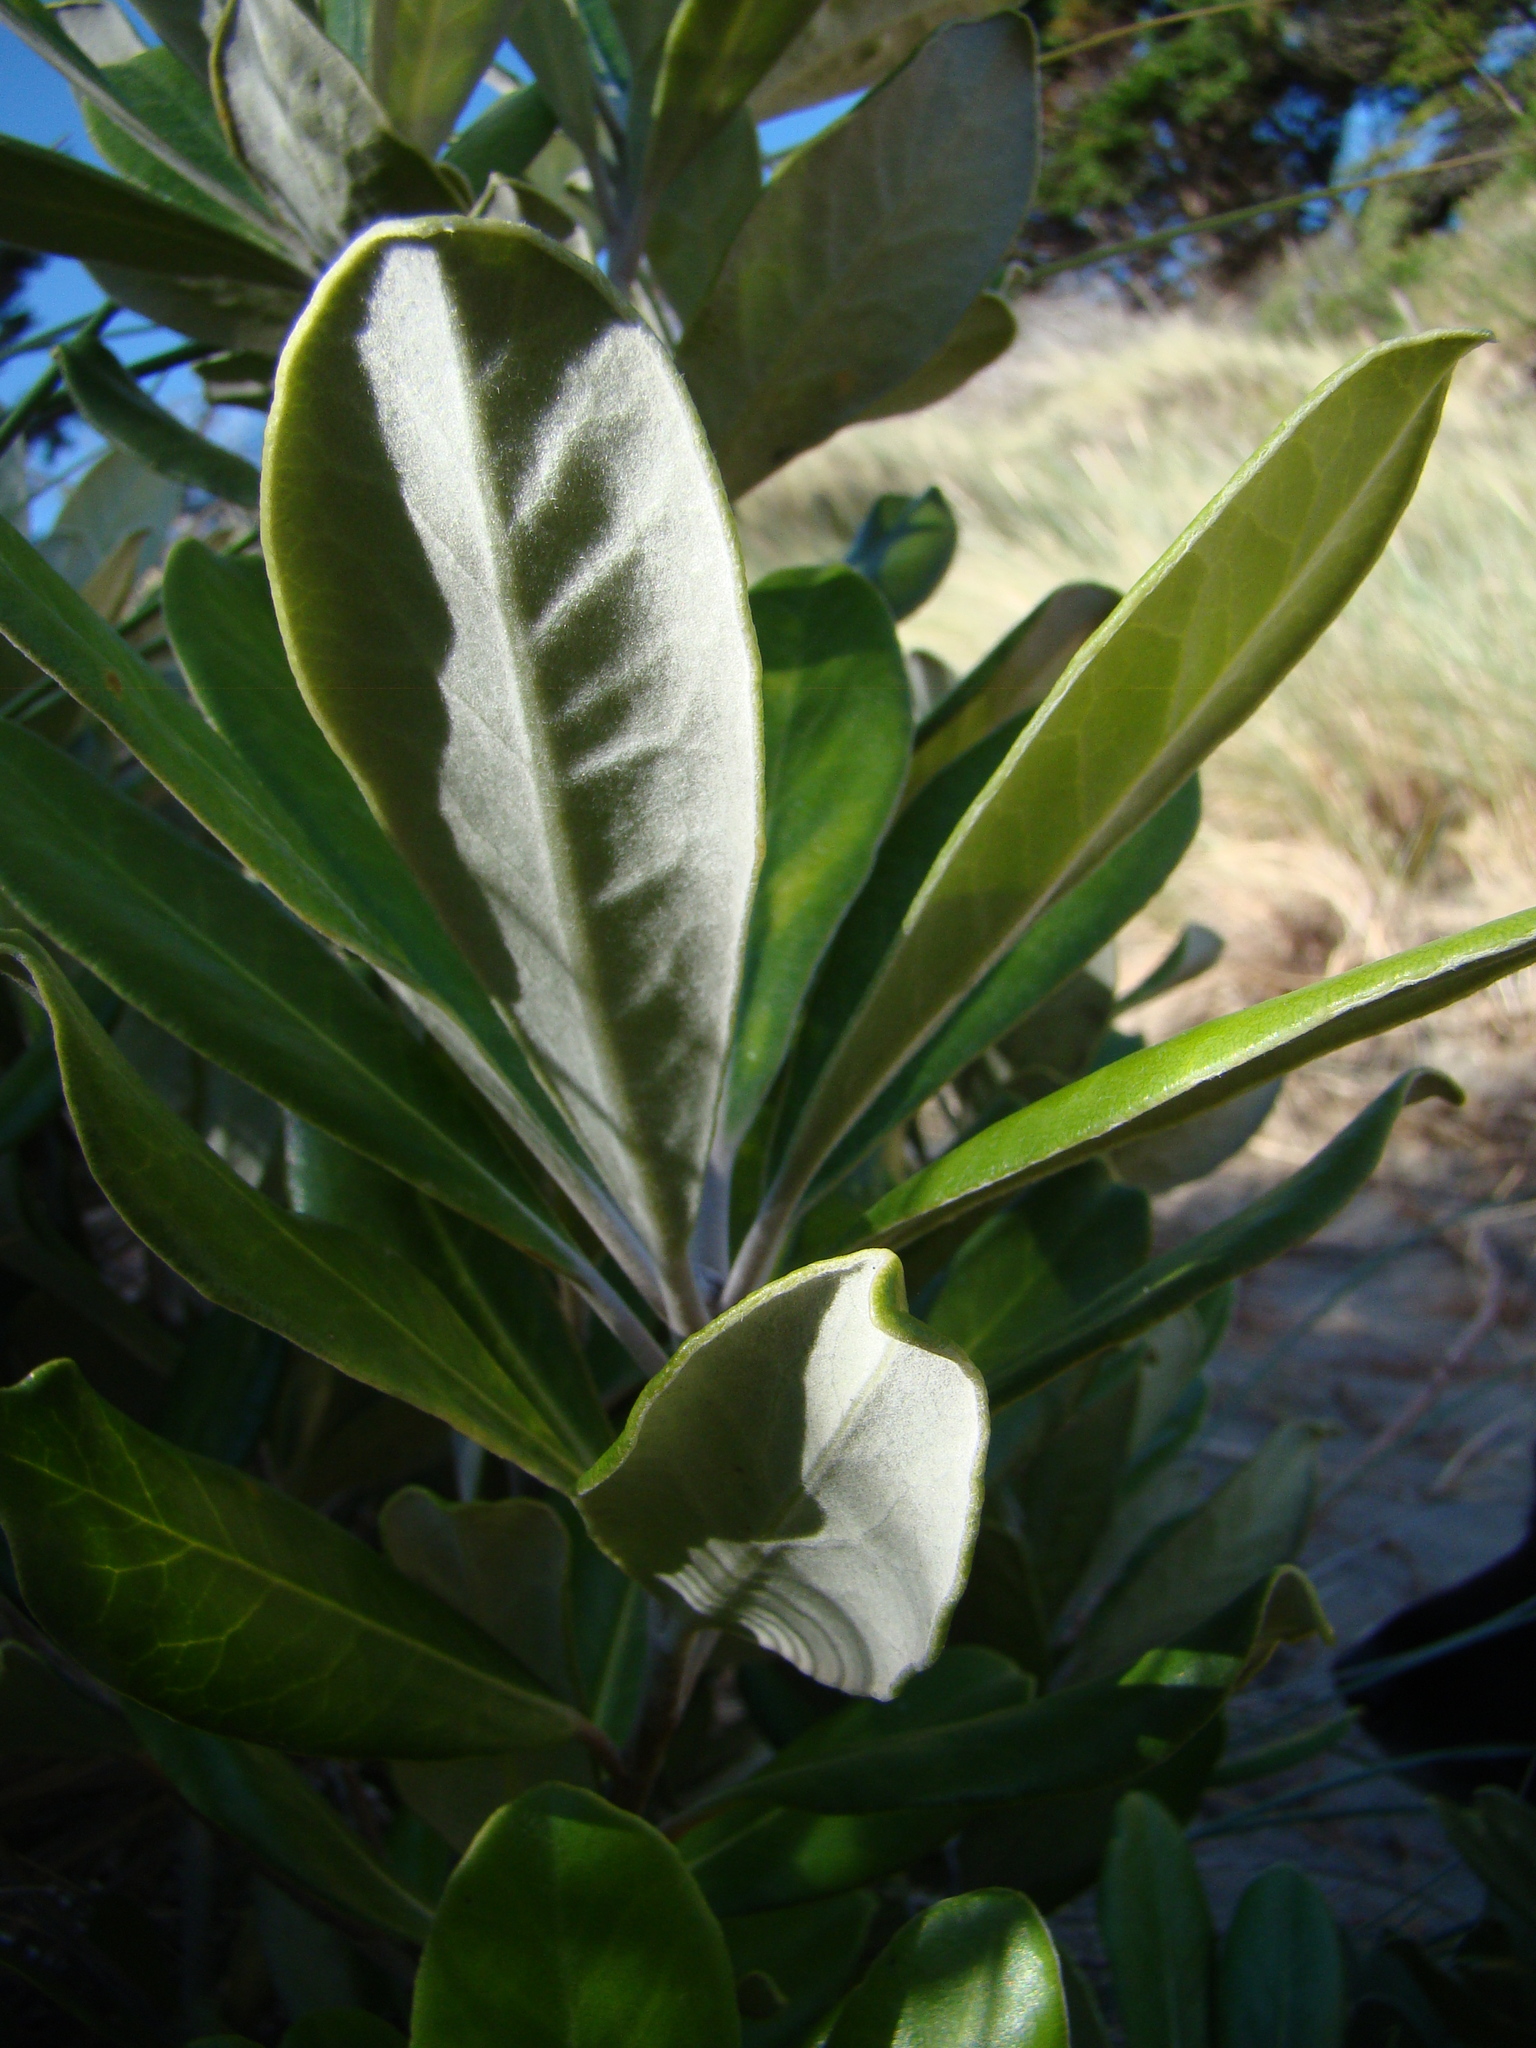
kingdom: Plantae
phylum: Tracheophyta
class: Magnoliopsida
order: Apiales
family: Pittosporaceae
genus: Pittosporum
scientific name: Pittosporum crassifolium
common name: Karo
